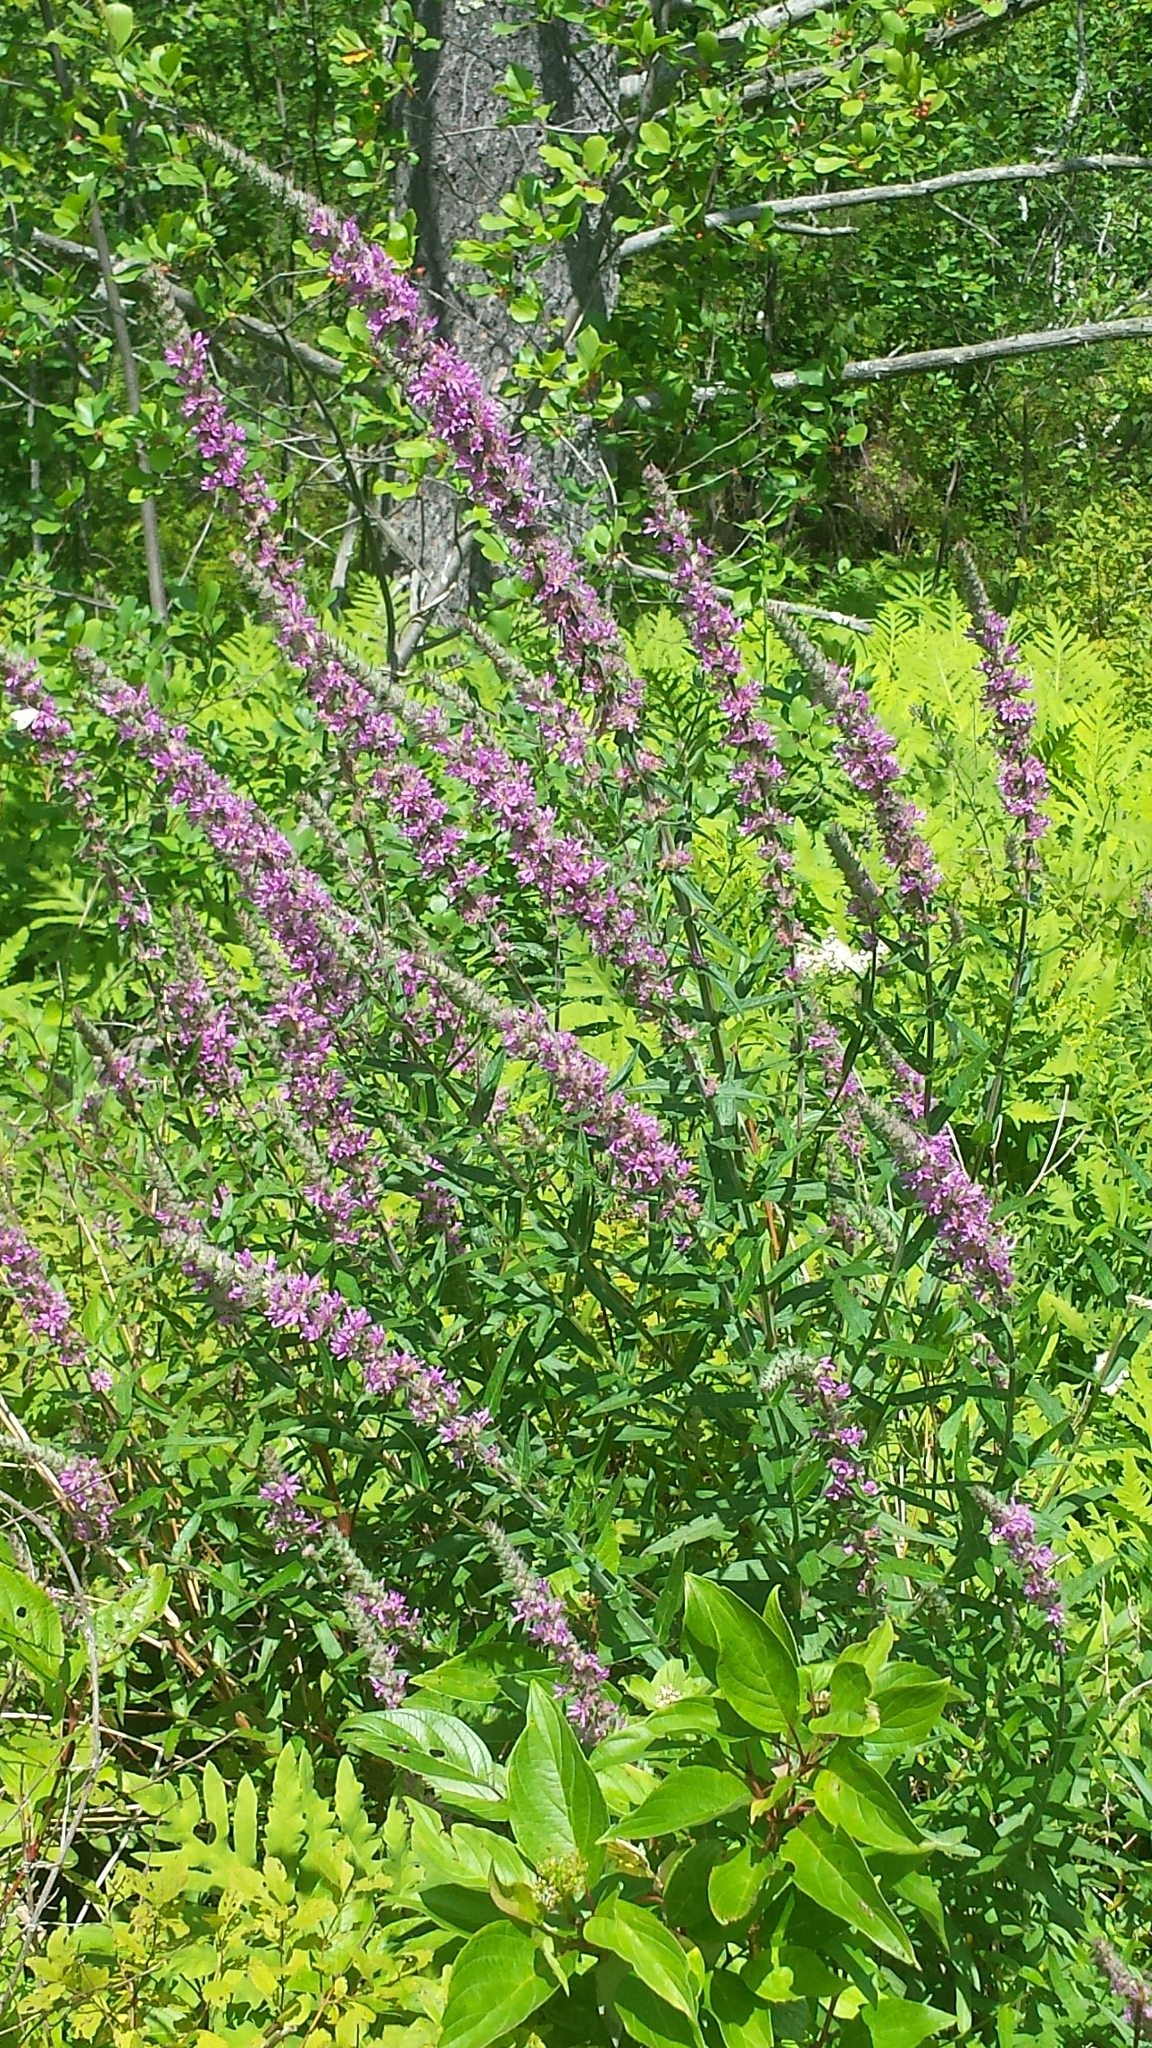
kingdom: Plantae
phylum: Tracheophyta
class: Magnoliopsida
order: Myrtales
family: Lythraceae
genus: Lythrum
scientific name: Lythrum salicaria
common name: Purple loosestrife
